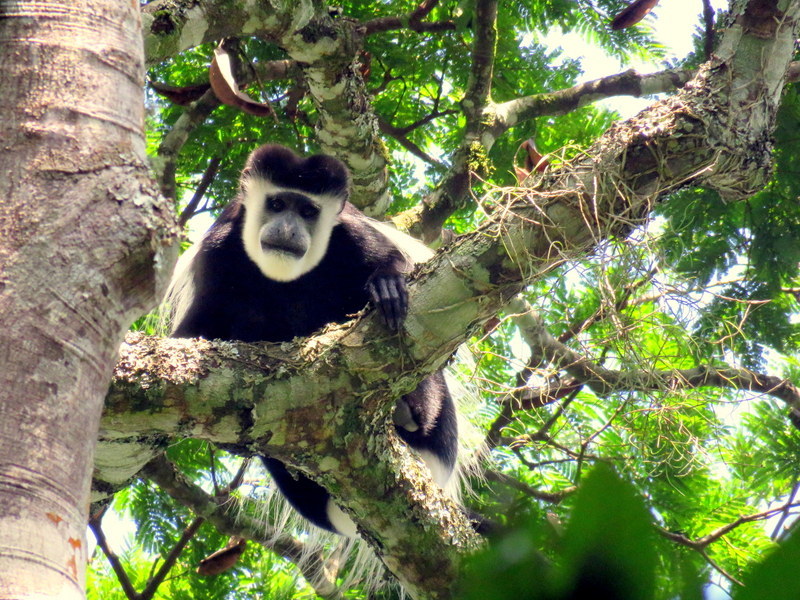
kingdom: Animalia
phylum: Chordata
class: Mammalia
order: Primates
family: Cercopithecidae
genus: Colobus
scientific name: Colobus guereza
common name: Mantled guereza
